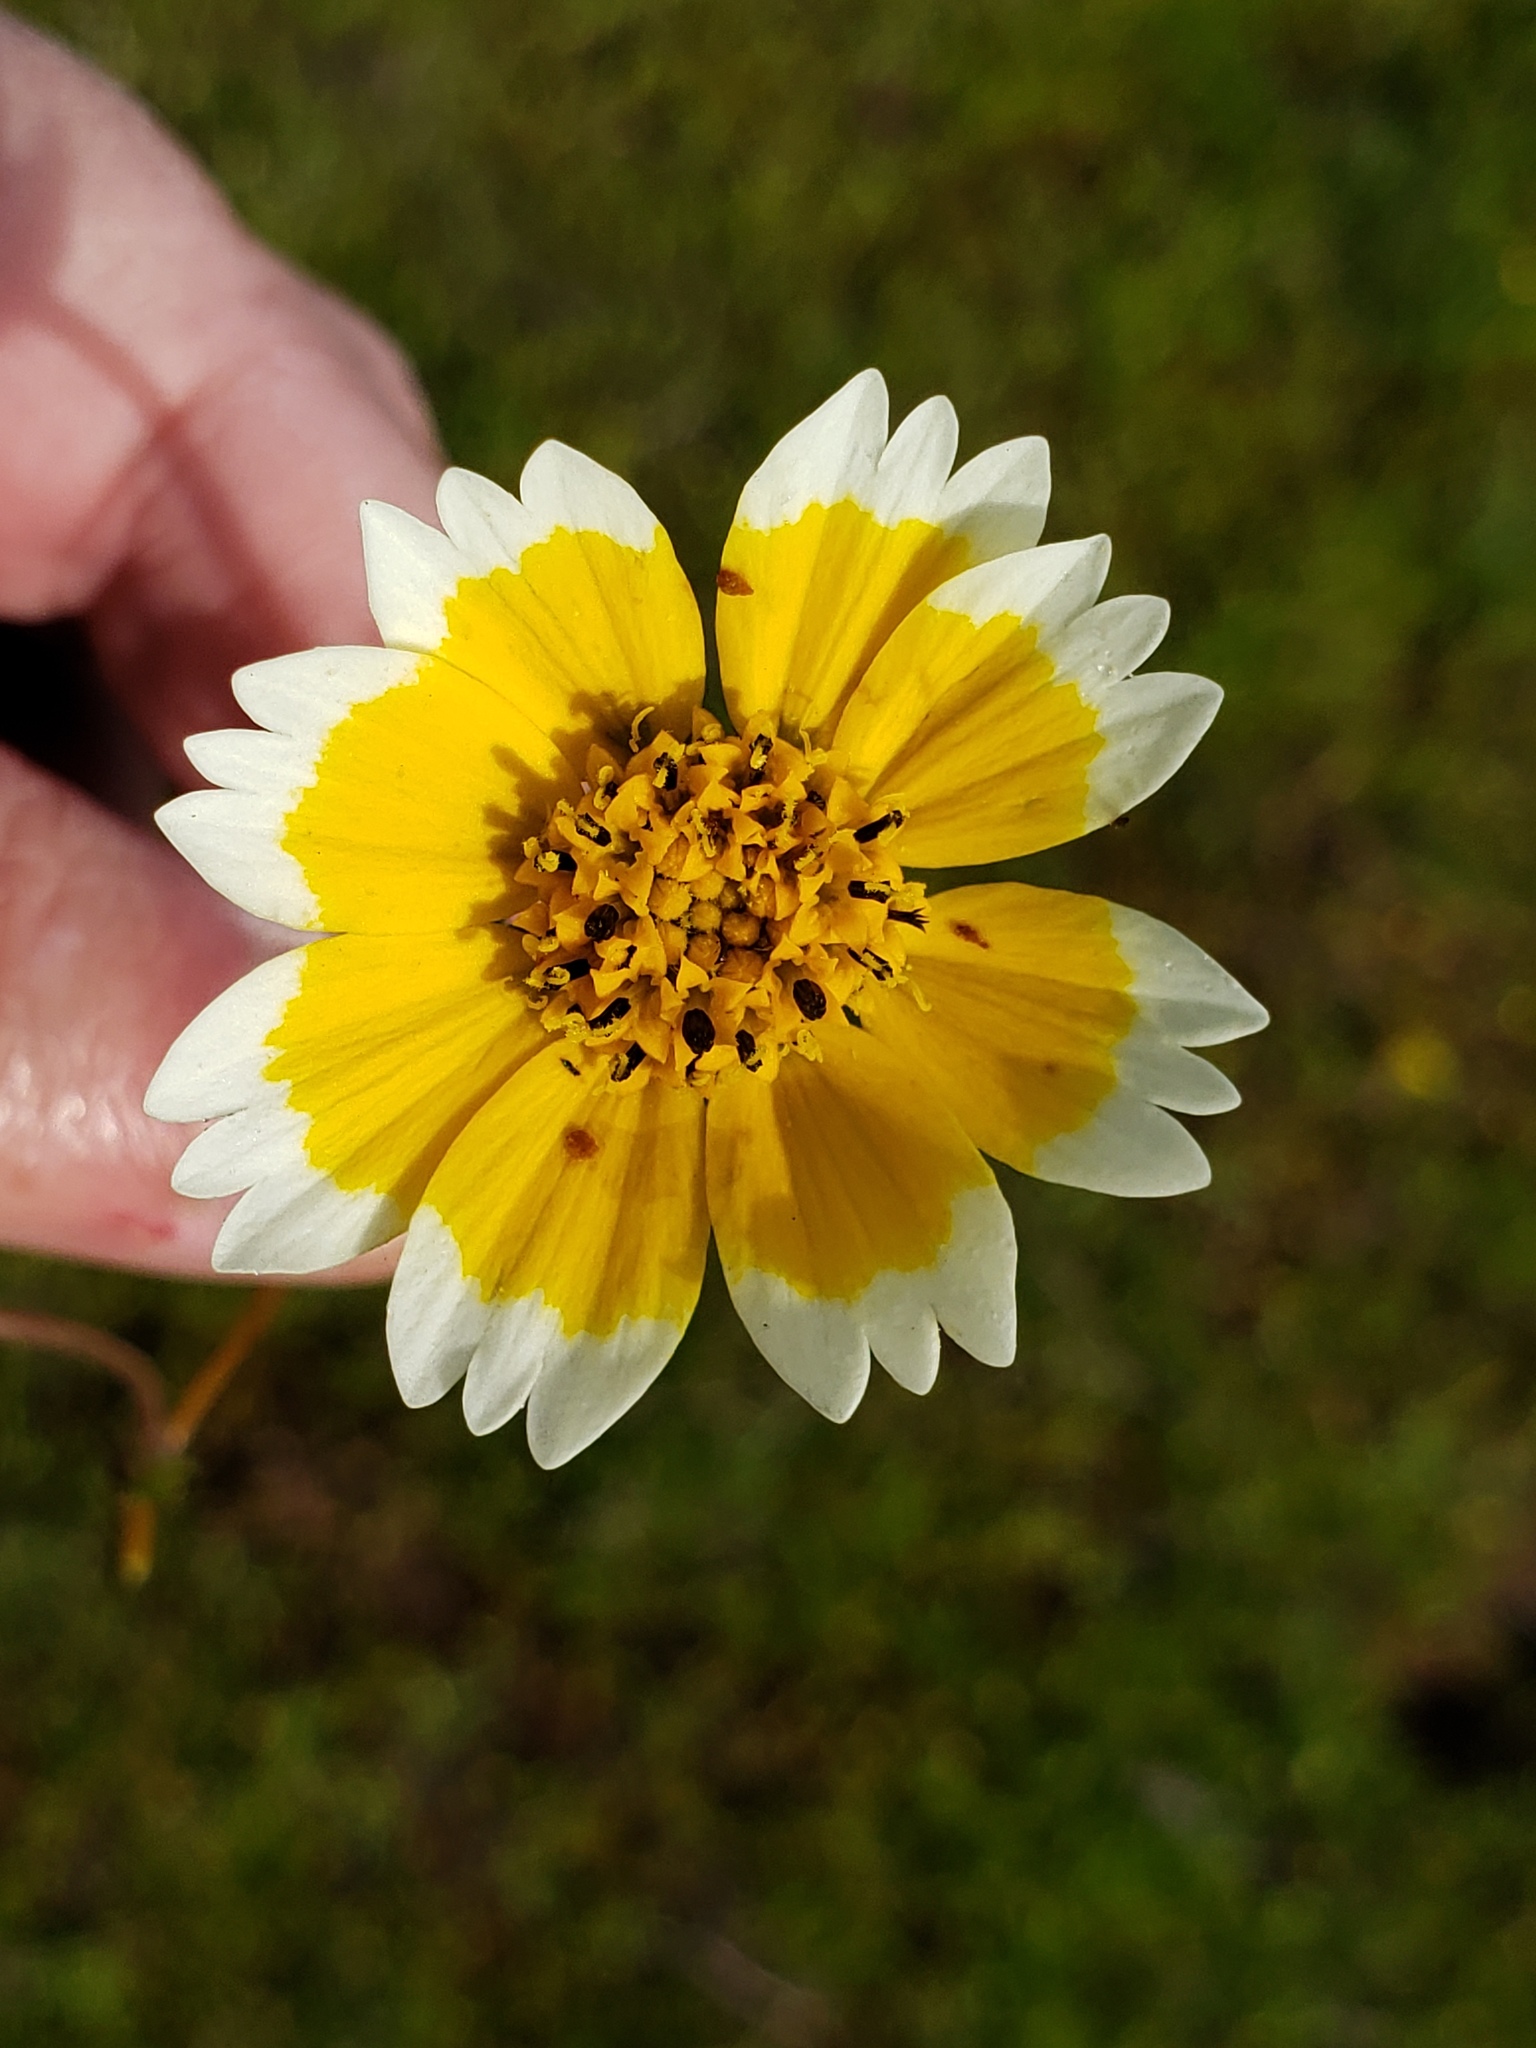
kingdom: Plantae
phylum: Tracheophyta
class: Magnoliopsida
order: Asterales
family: Asteraceae
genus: Layia
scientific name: Layia fremontii
